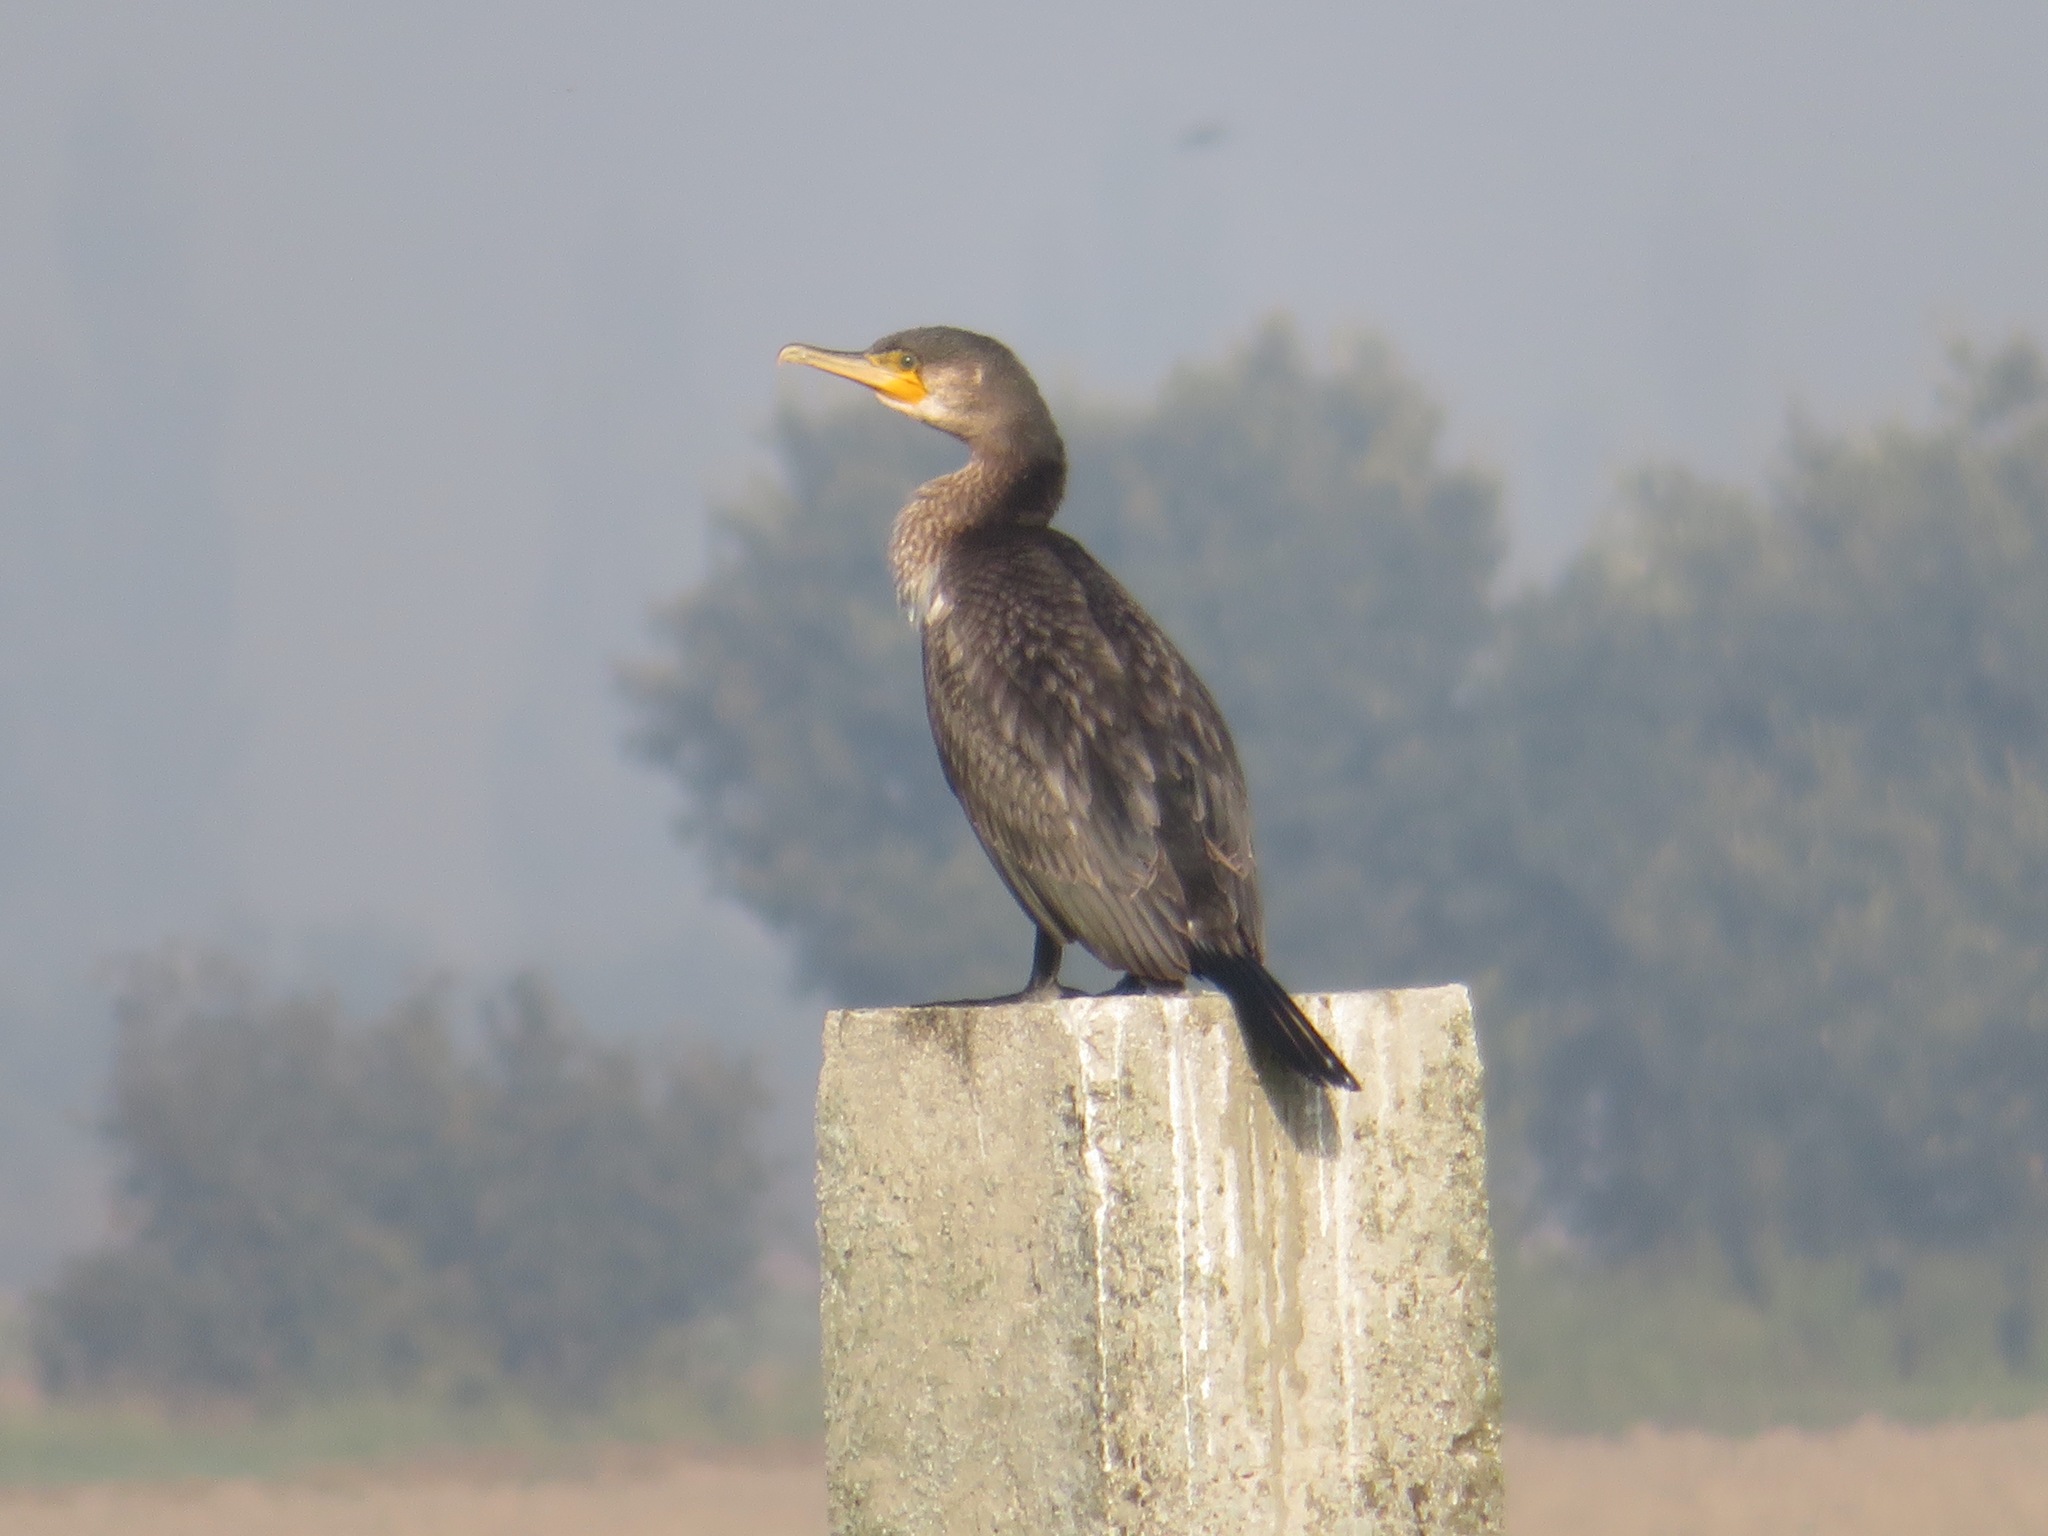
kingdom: Animalia
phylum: Chordata
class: Aves
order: Suliformes
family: Phalacrocoracidae
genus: Phalacrocorax
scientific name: Phalacrocorax carbo
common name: Great cormorant
